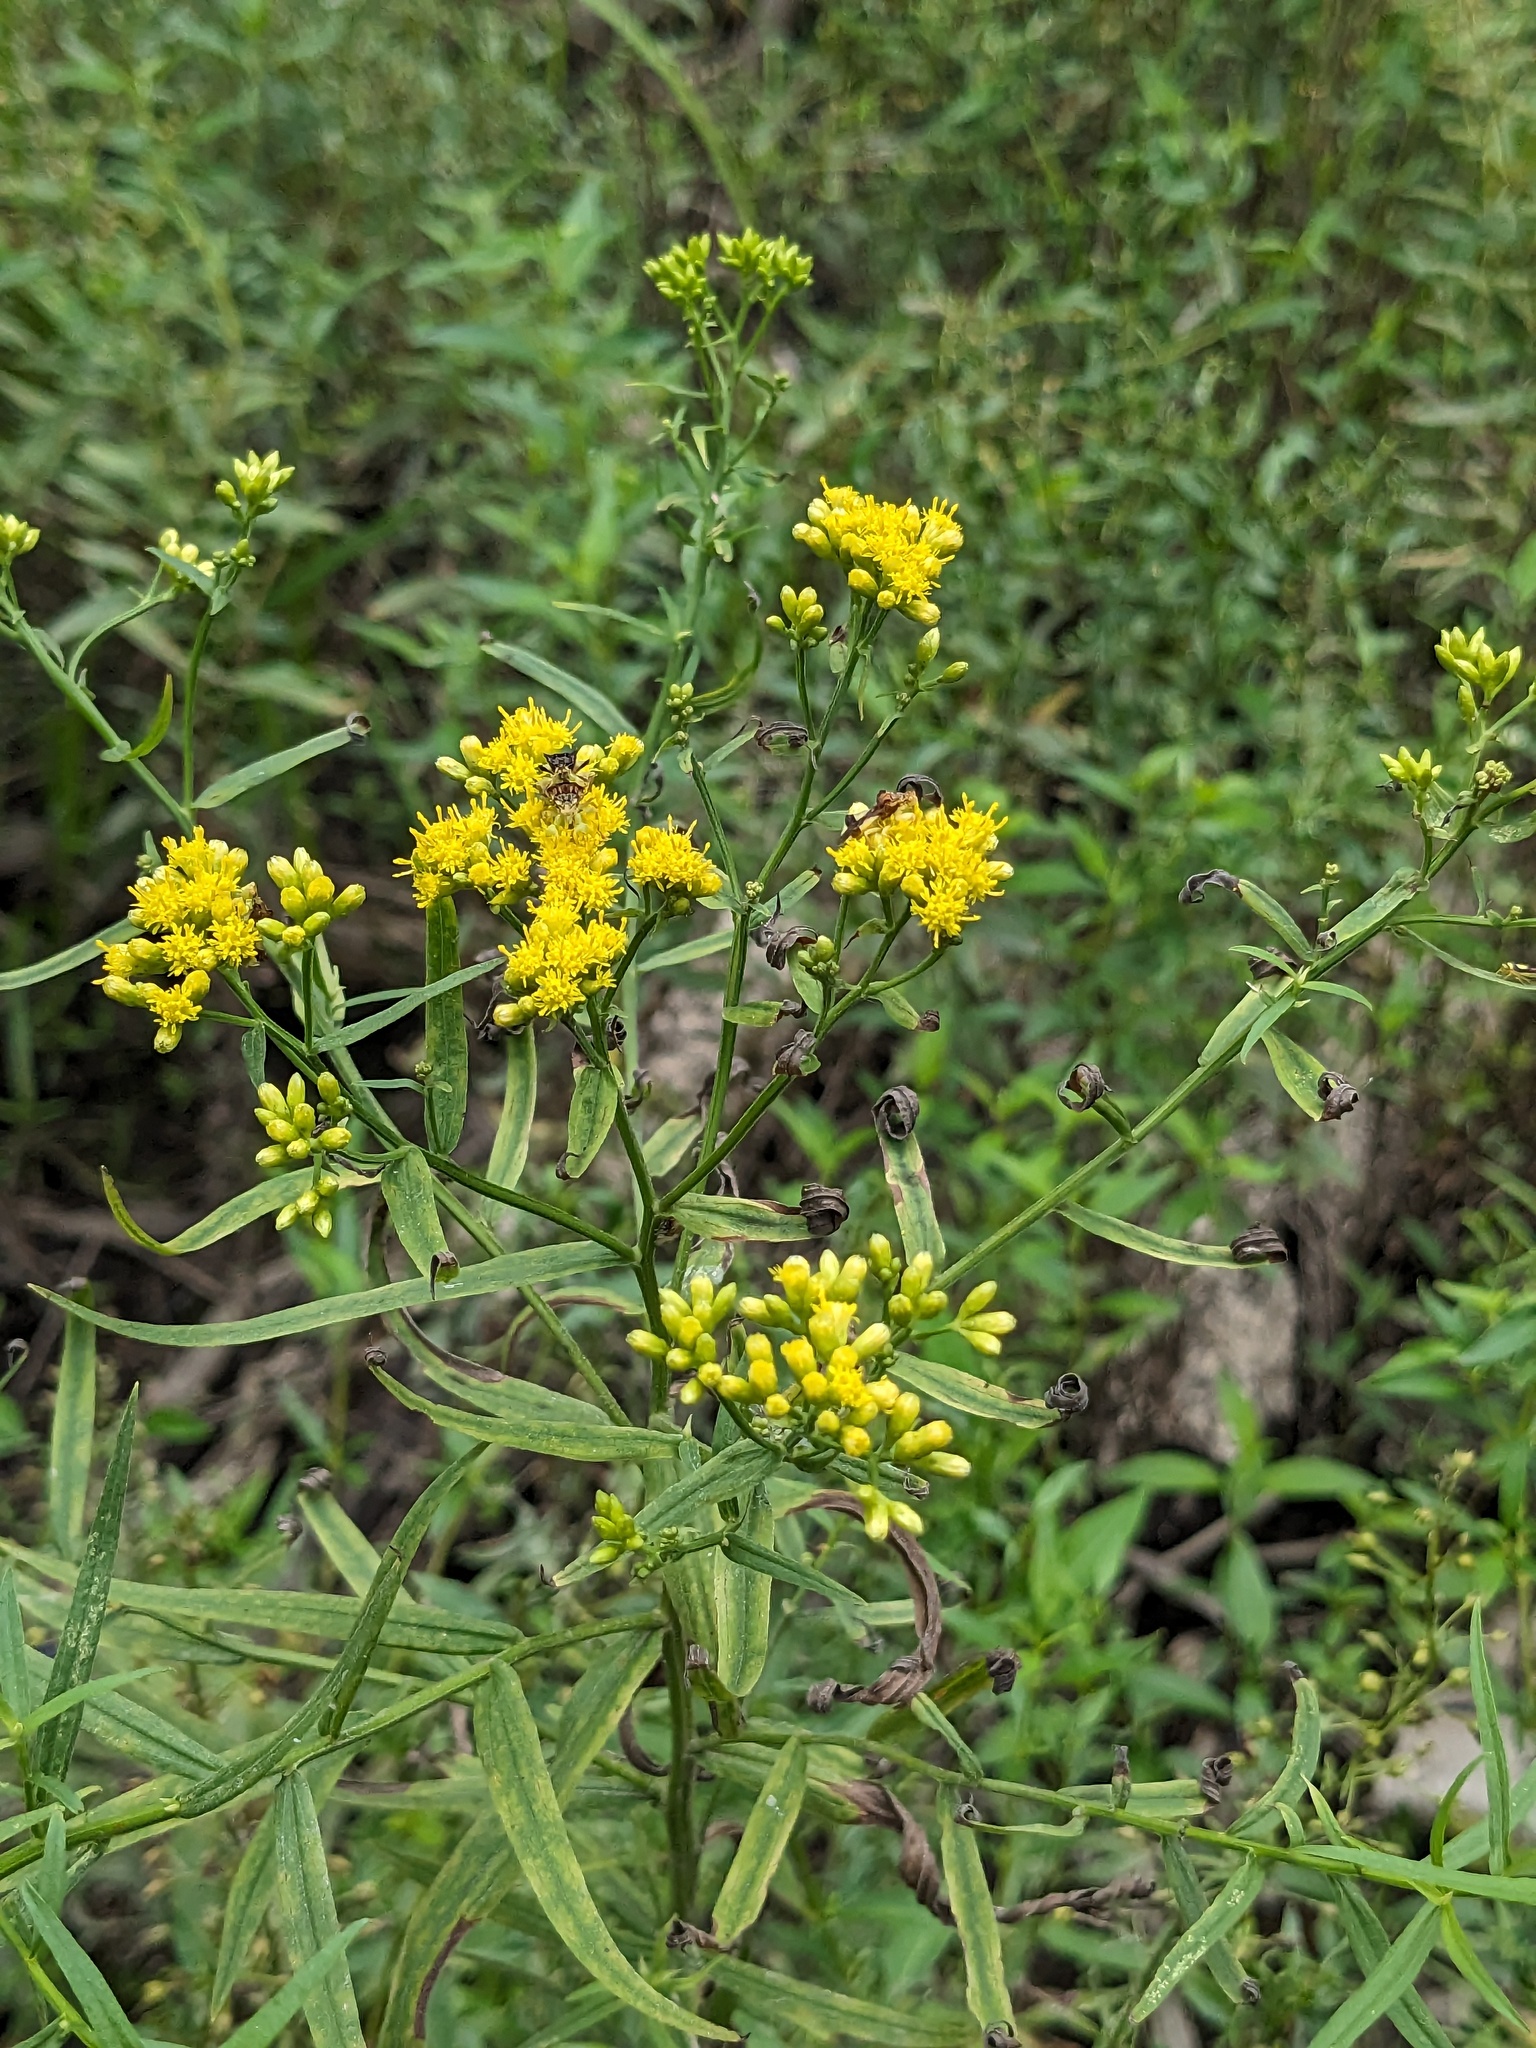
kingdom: Plantae
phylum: Tracheophyta
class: Magnoliopsida
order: Asterales
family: Asteraceae
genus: Euthamia
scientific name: Euthamia graminifolia
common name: Common goldentop
